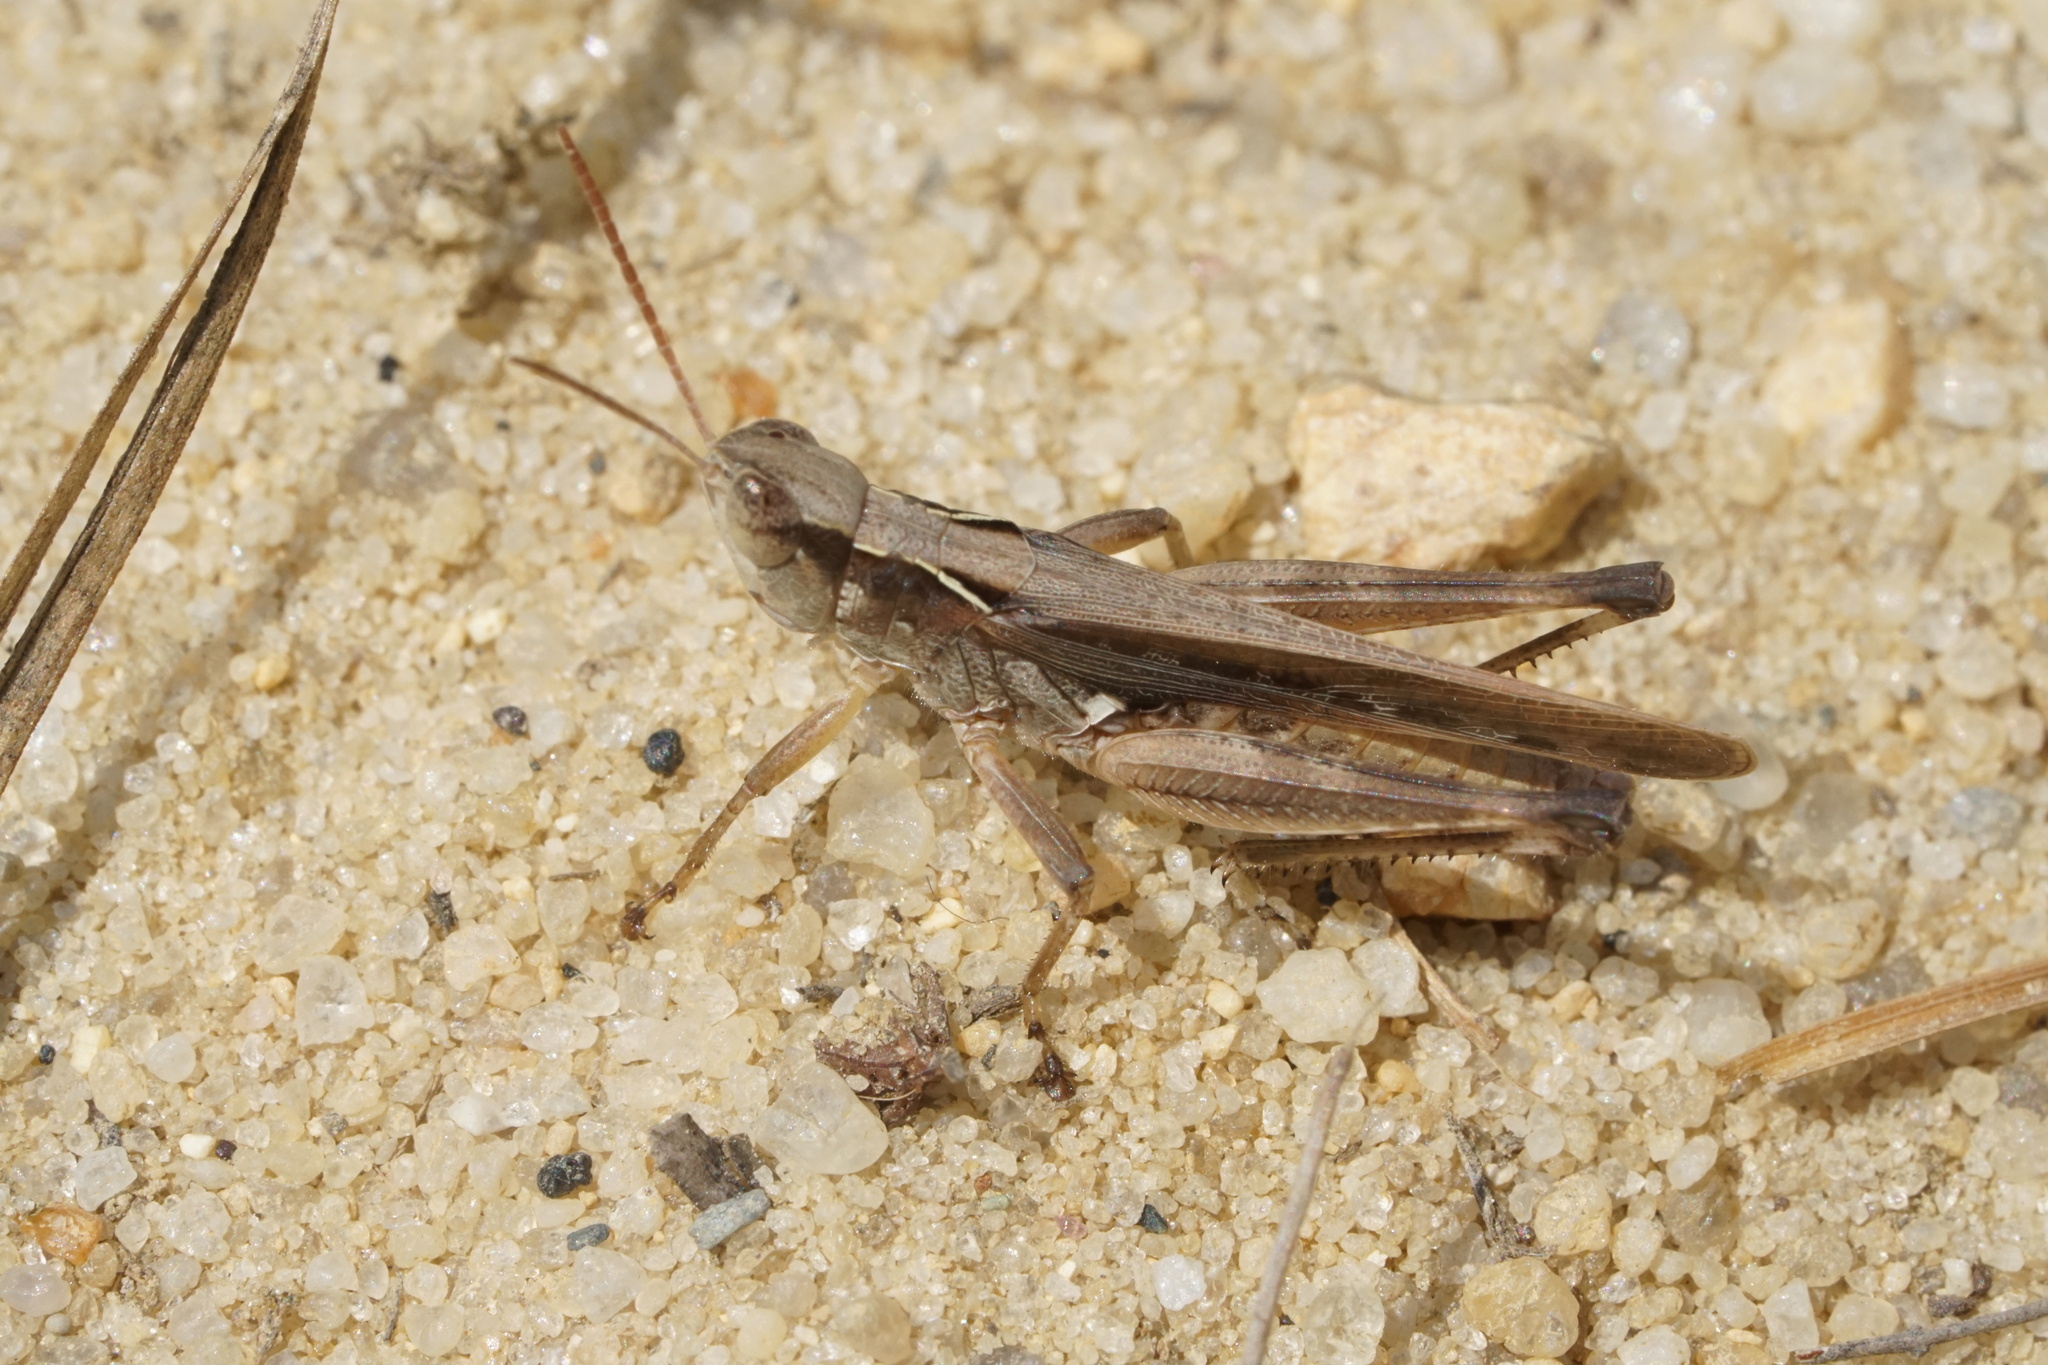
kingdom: Animalia
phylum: Arthropoda
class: Insecta
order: Orthoptera
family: Acrididae
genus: Orphulella
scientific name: Orphulella pelidna
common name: Spotted-wing grasshopper
